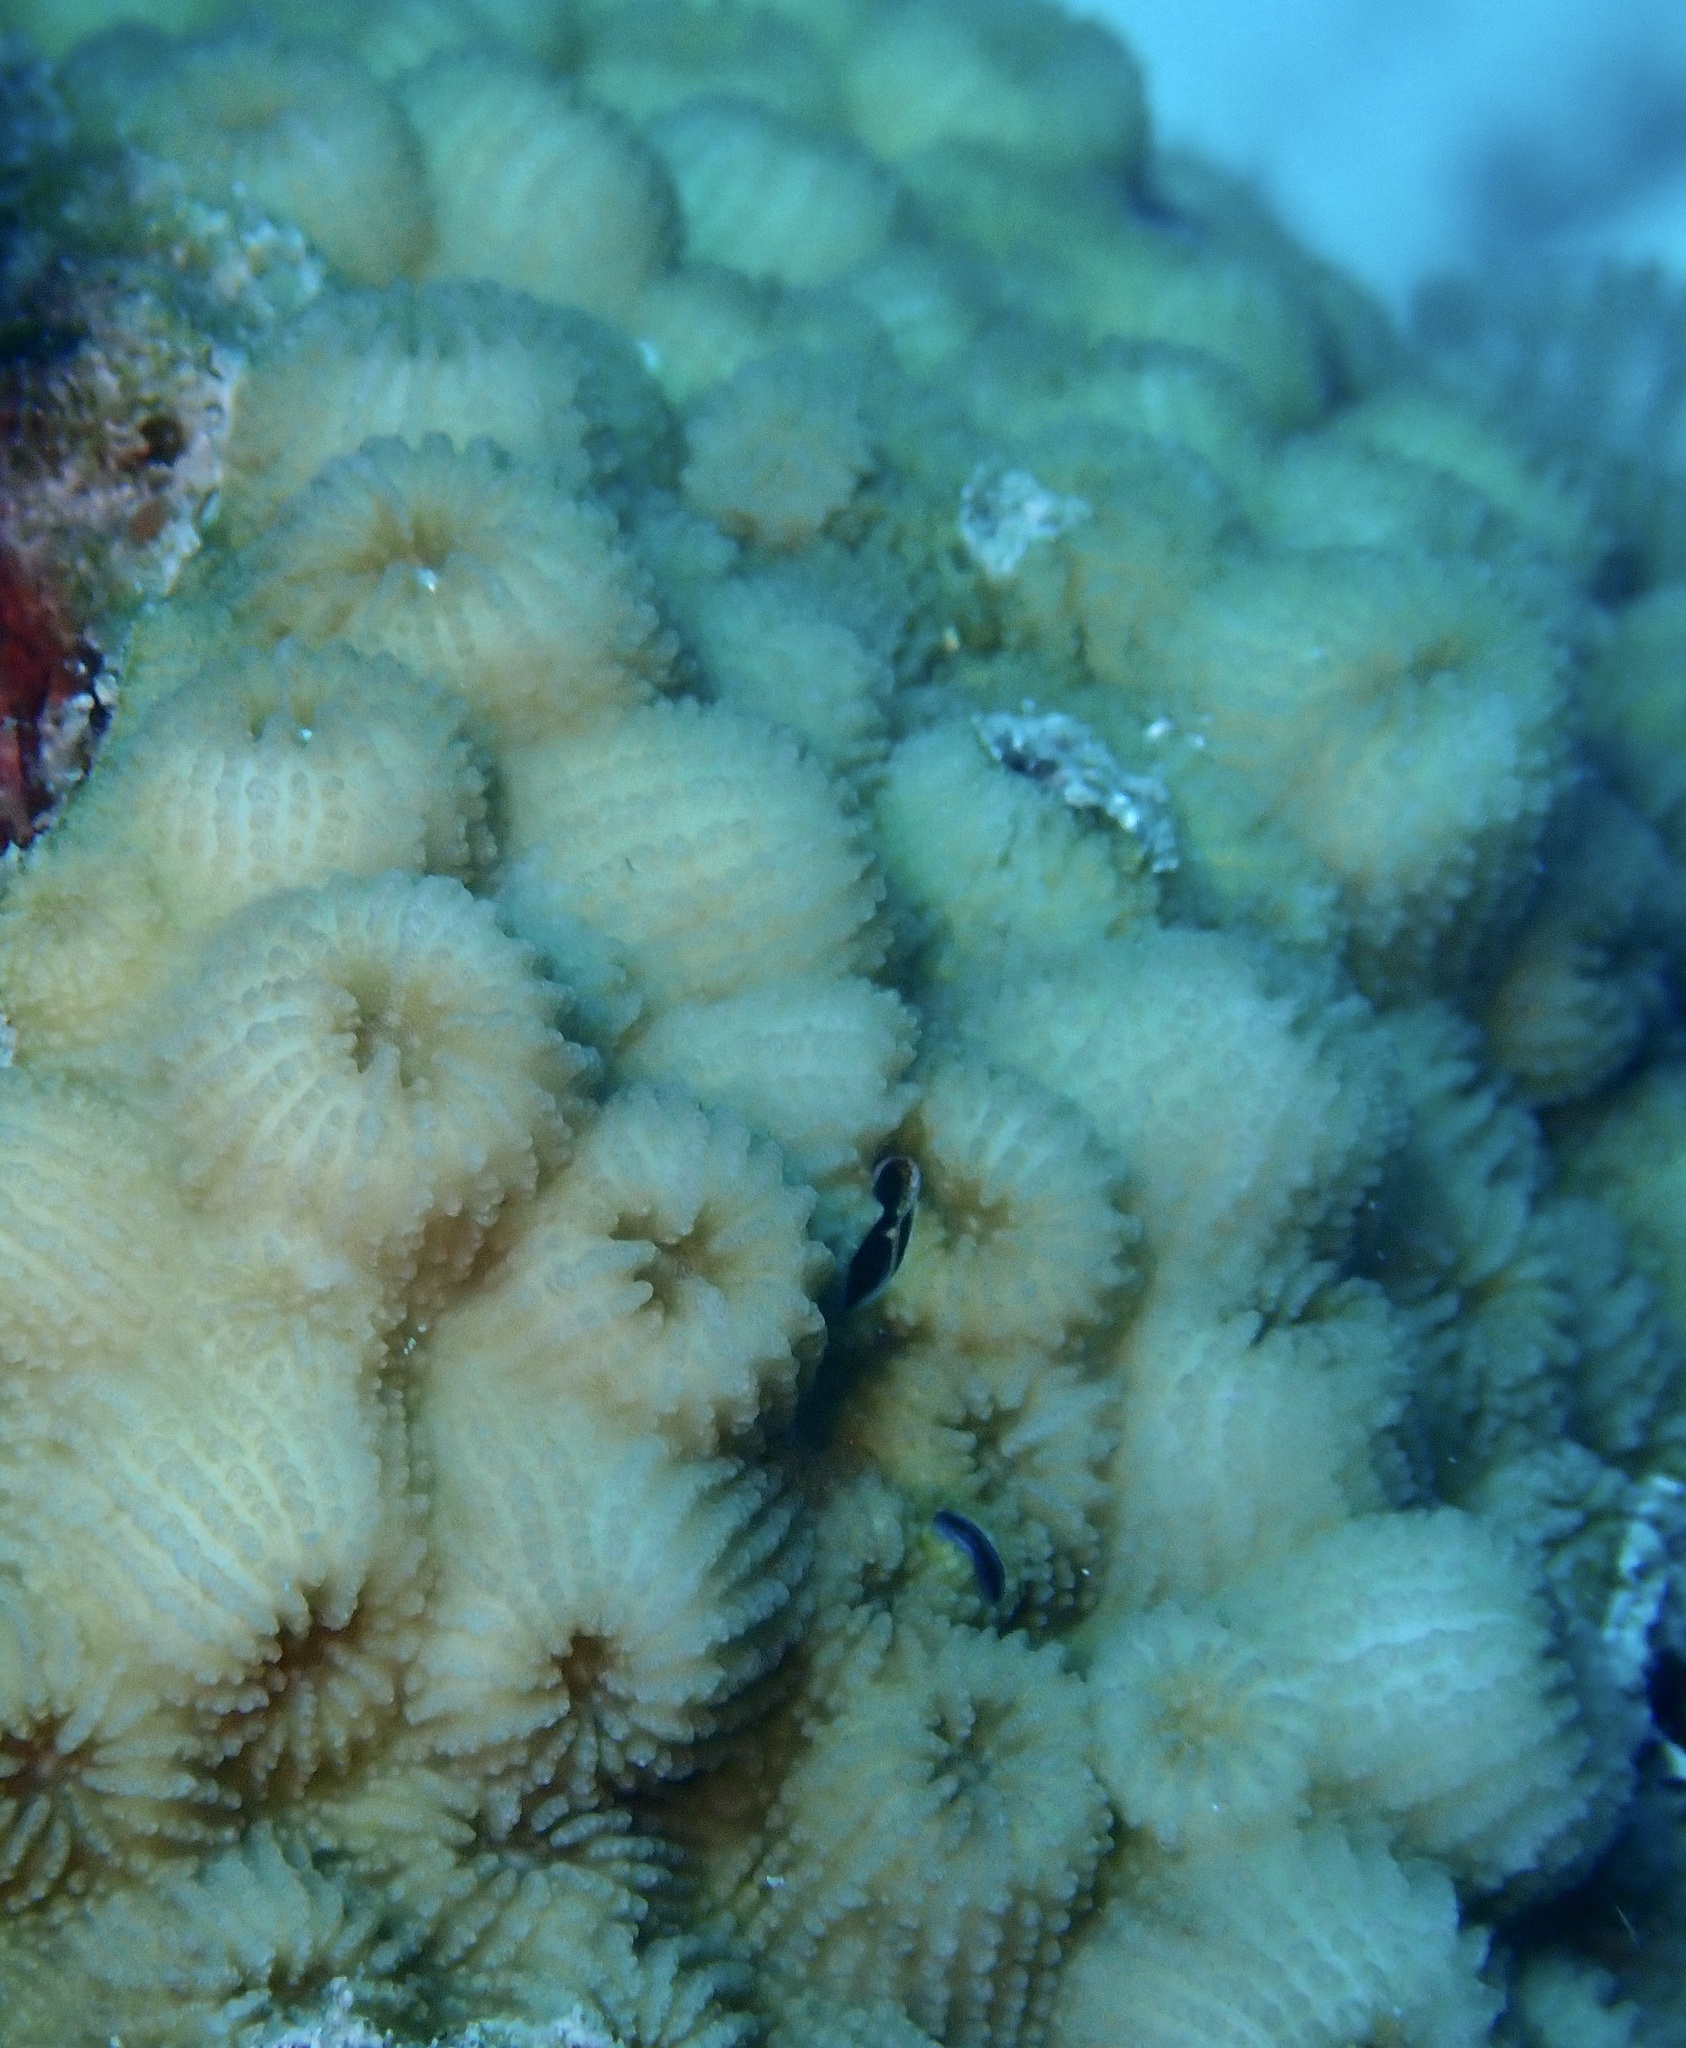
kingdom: Animalia
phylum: Cnidaria
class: Anthozoa
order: Scleractinia
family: Merulinidae
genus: Echinopora
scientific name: Echinopora forskaliana
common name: Hedgehog coral
